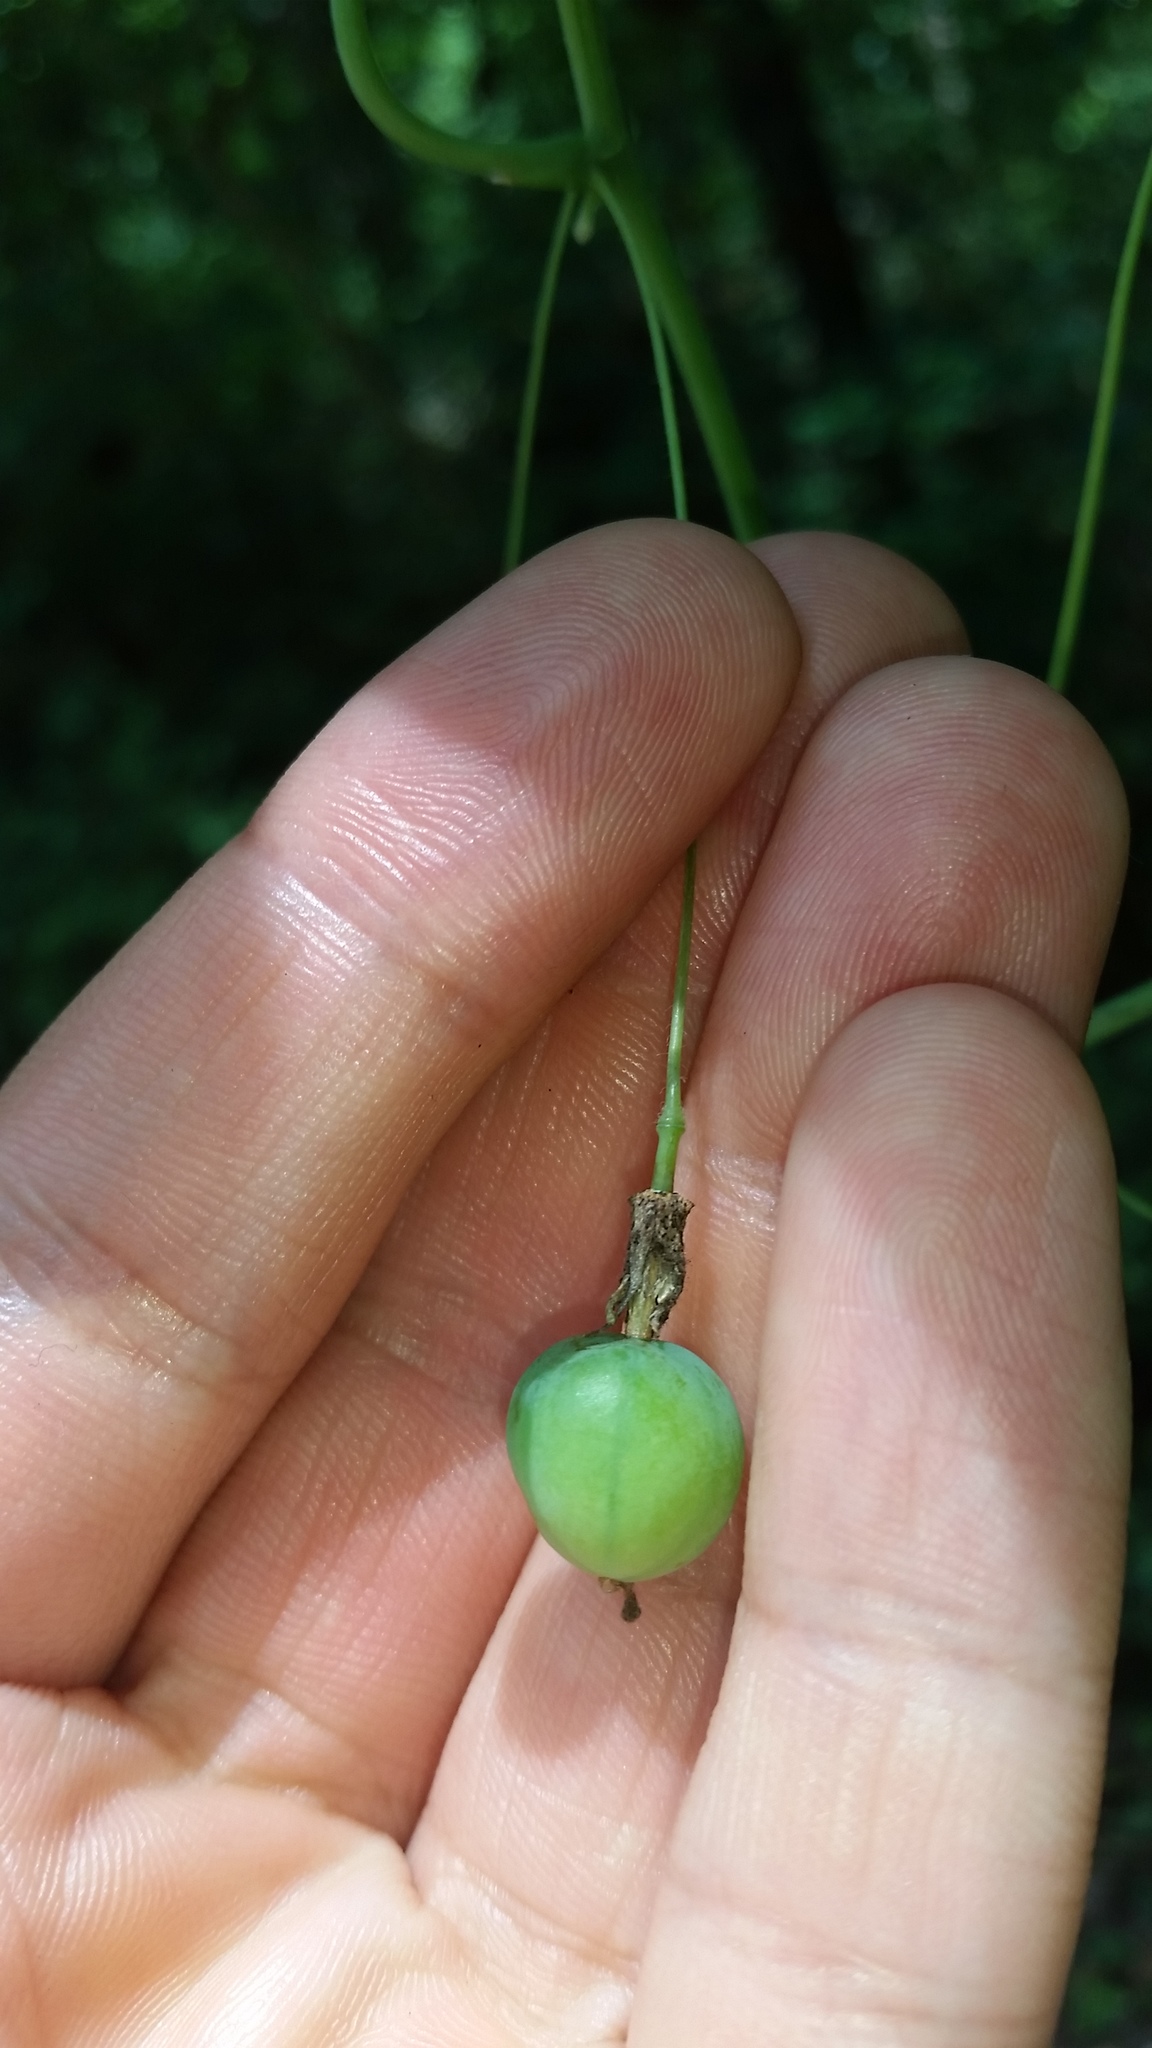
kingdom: Plantae
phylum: Tracheophyta
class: Magnoliopsida
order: Malpighiales
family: Passifloraceae
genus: Passiflora
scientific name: Passiflora lutea
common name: Yellow passionflower
